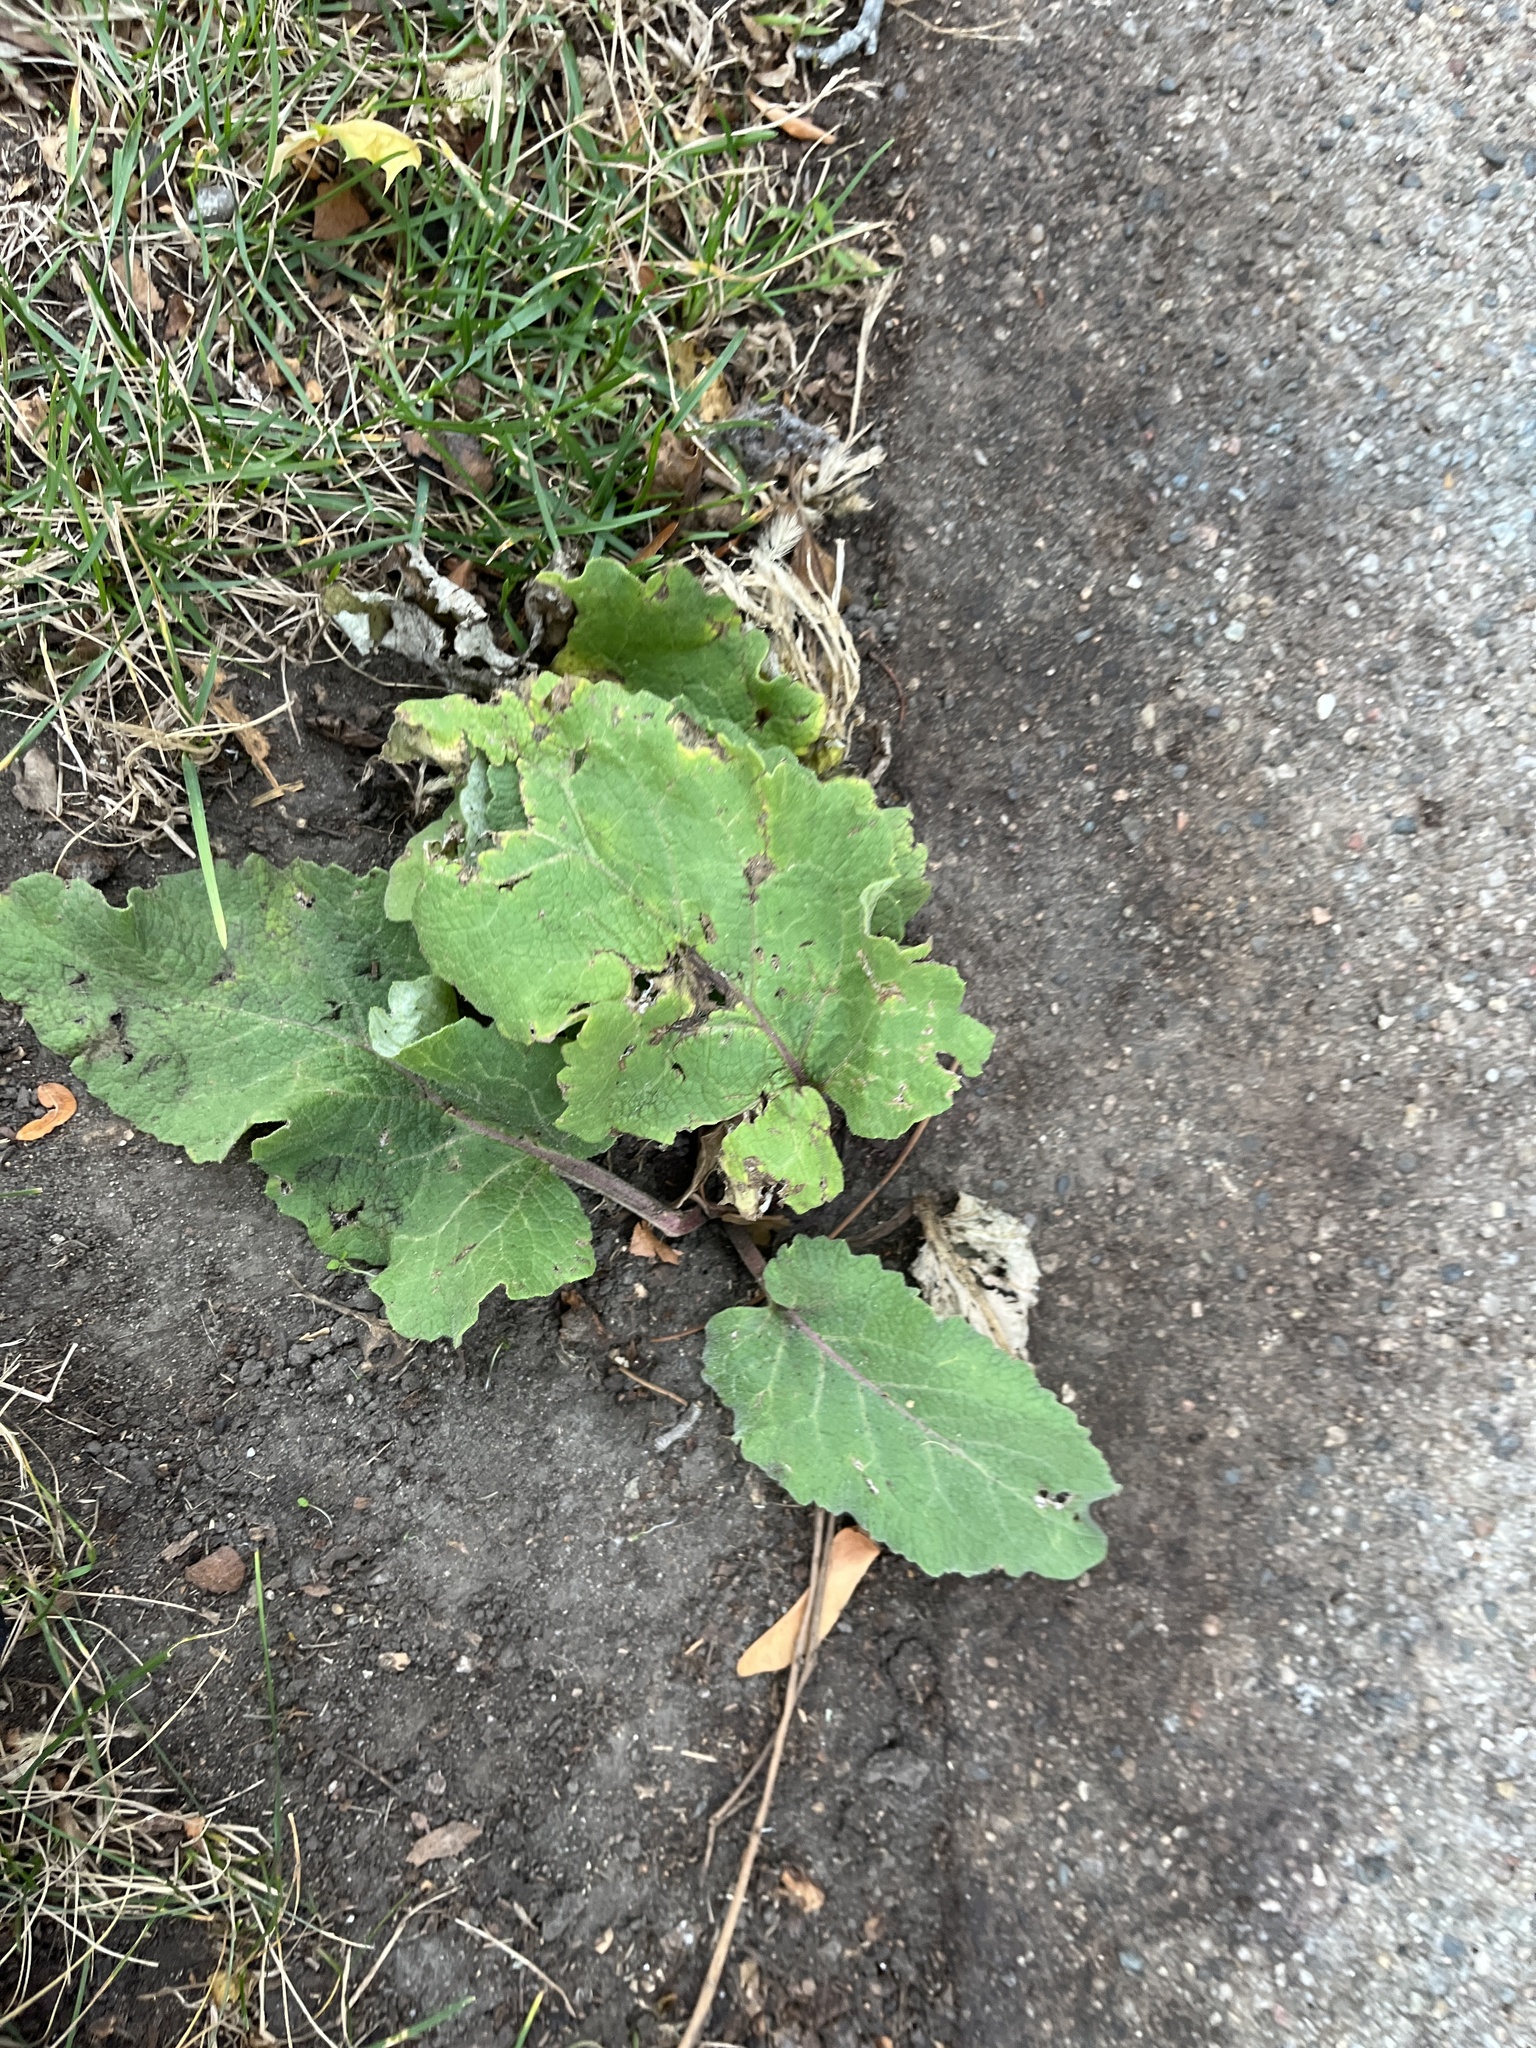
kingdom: Plantae
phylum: Tracheophyta
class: Magnoliopsida
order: Asterales
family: Asteraceae
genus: Arctium
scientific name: Arctium
